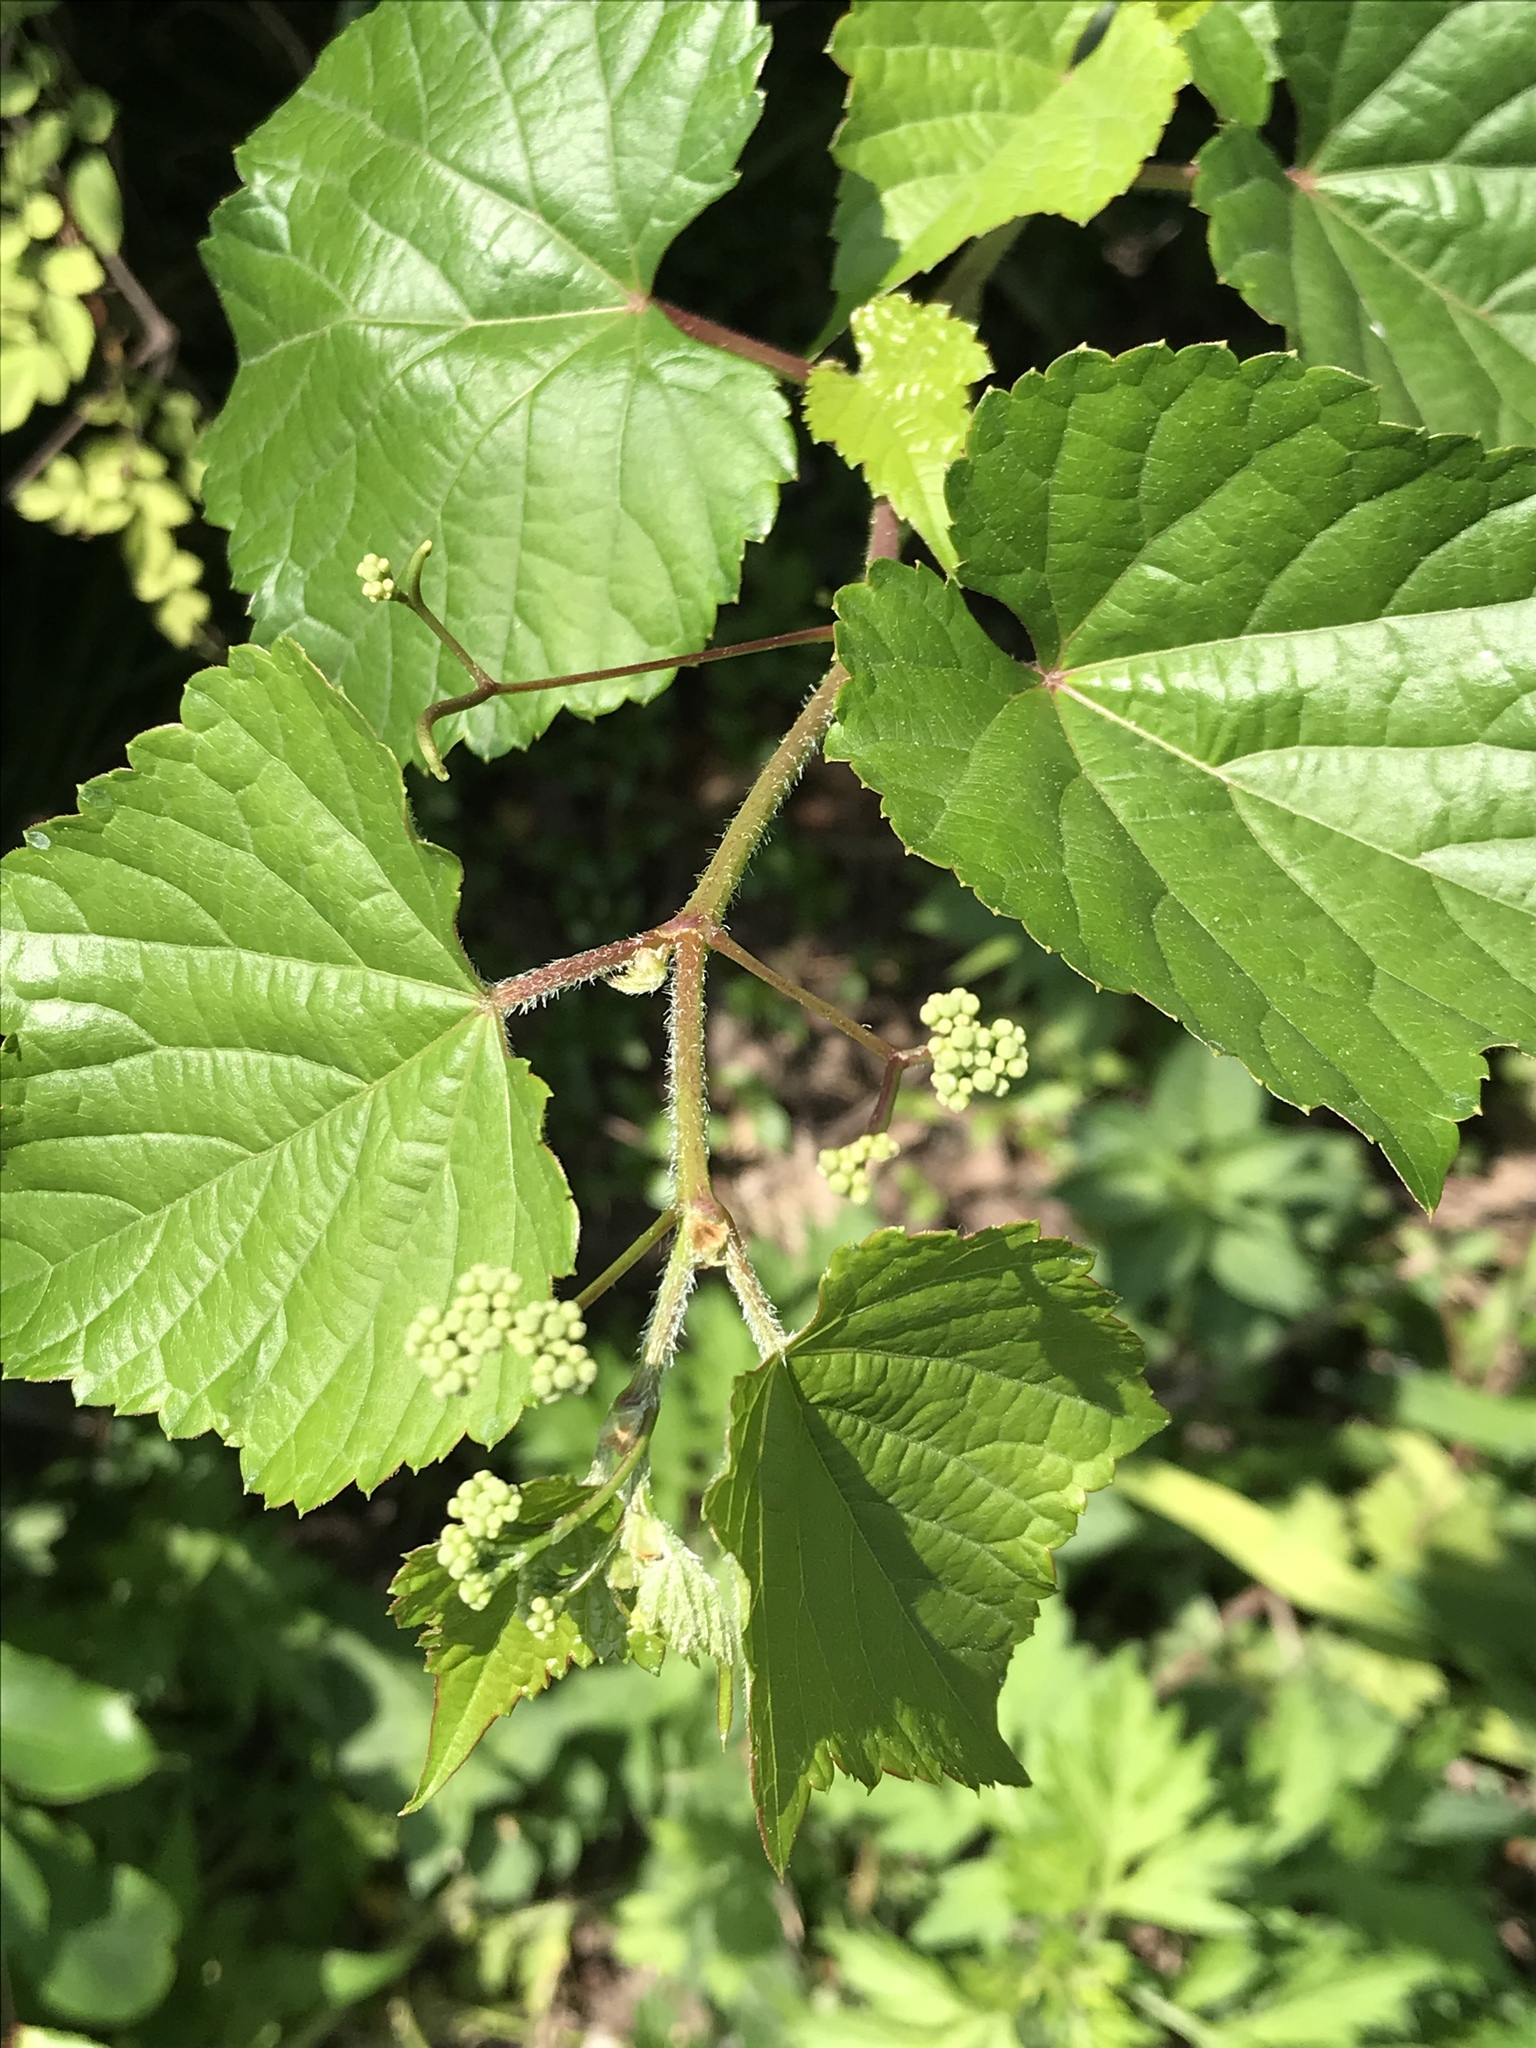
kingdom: Plantae
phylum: Tracheophyta
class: Magnoliopsida
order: Vitales
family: Vitaceae
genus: Ampelopsis
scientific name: Ampelopsis glandulosa
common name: Amur peppervine
